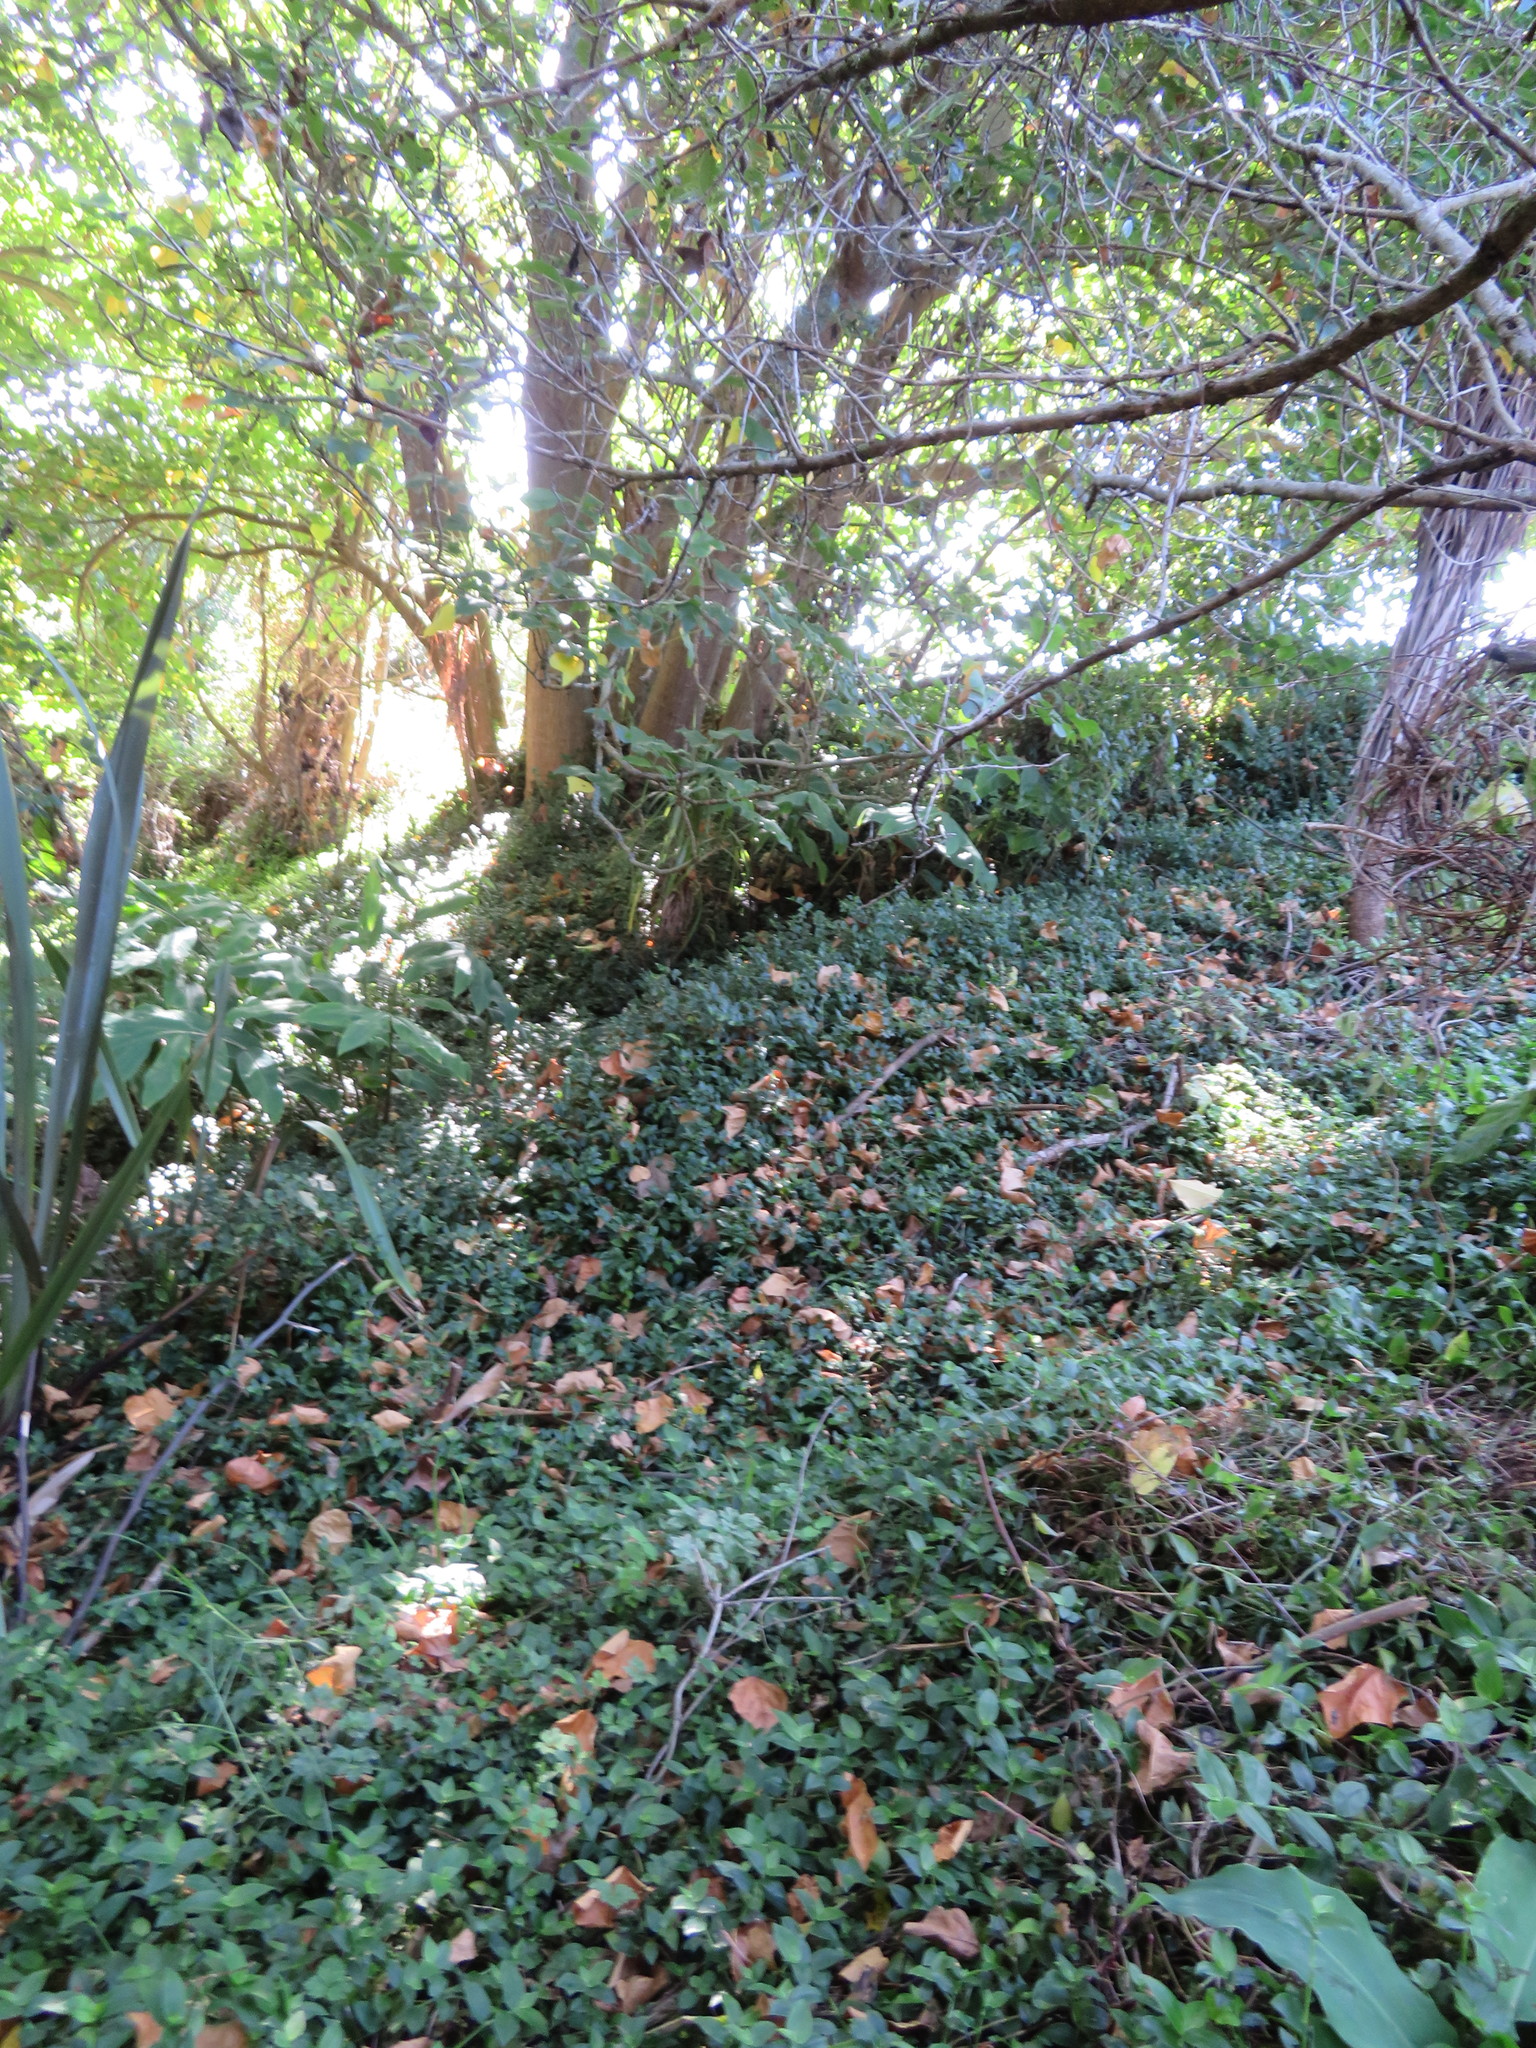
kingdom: Plantae
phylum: Tracheophyta
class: Liliopsida
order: Commelinales
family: Commelinaceae
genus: Tradescantia
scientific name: Tradescantia fluminensis
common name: Wandering-jew
